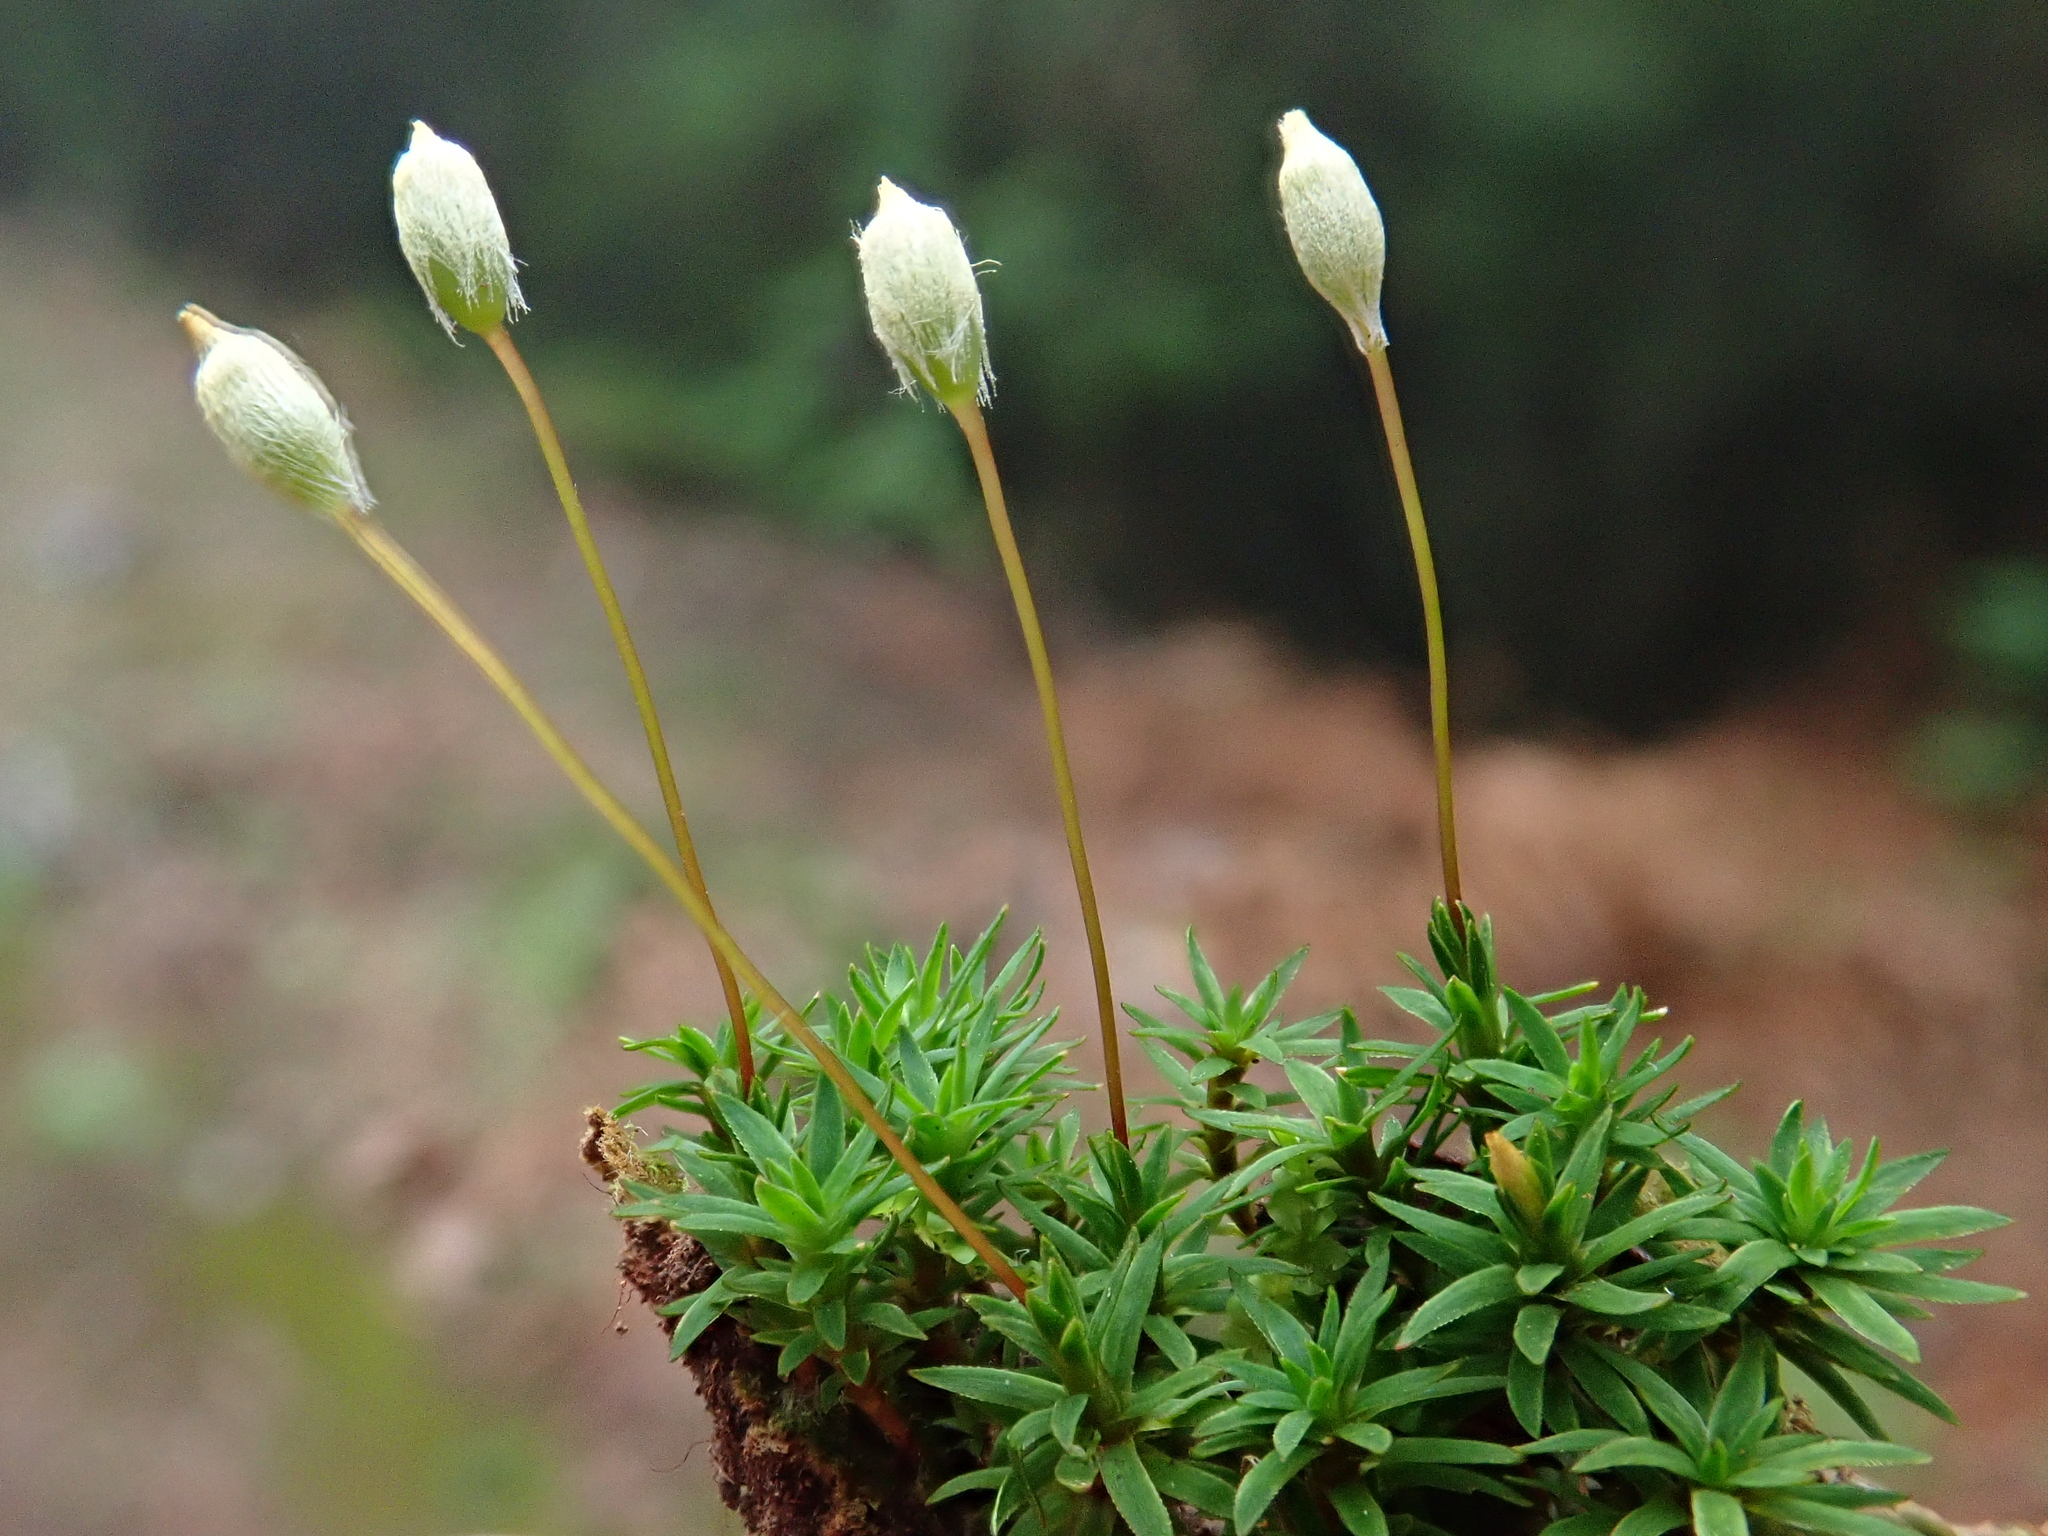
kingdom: Plantae
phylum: Bryophyta
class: Polytrichopsida
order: Polytrichales
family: Polytrichaceae
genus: Pogonatum
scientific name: Pogonatum aloides
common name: Aloe haircap
